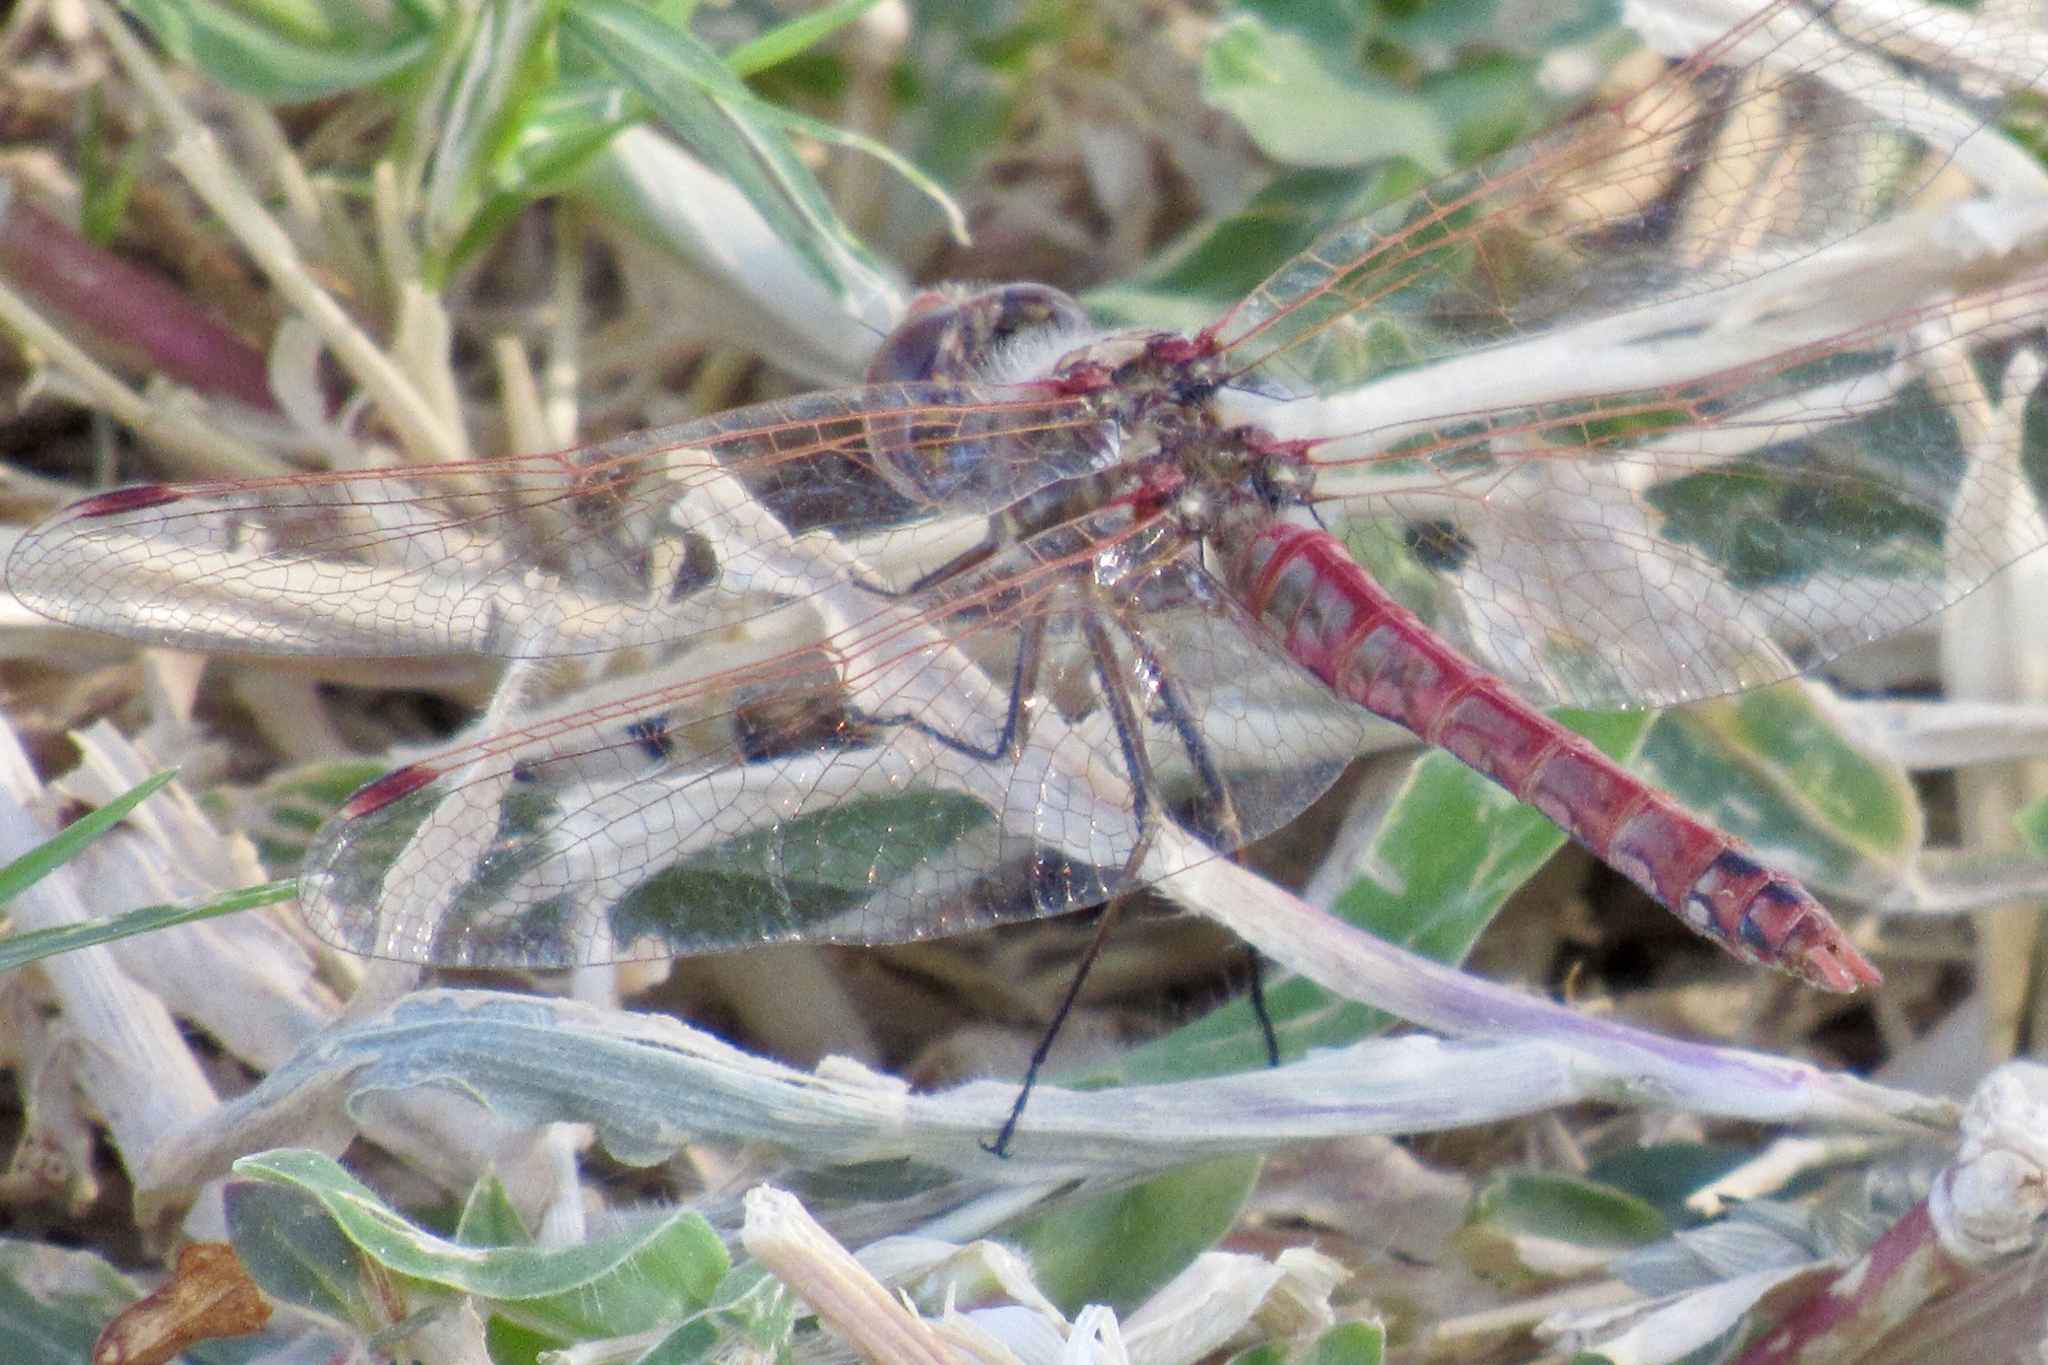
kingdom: Animalia
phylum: Arthropoda
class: Insecta
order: Odonata
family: Libellulidae
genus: Sympetrum
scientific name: Sympetrum corruptum
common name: Variegated meadowhawk
